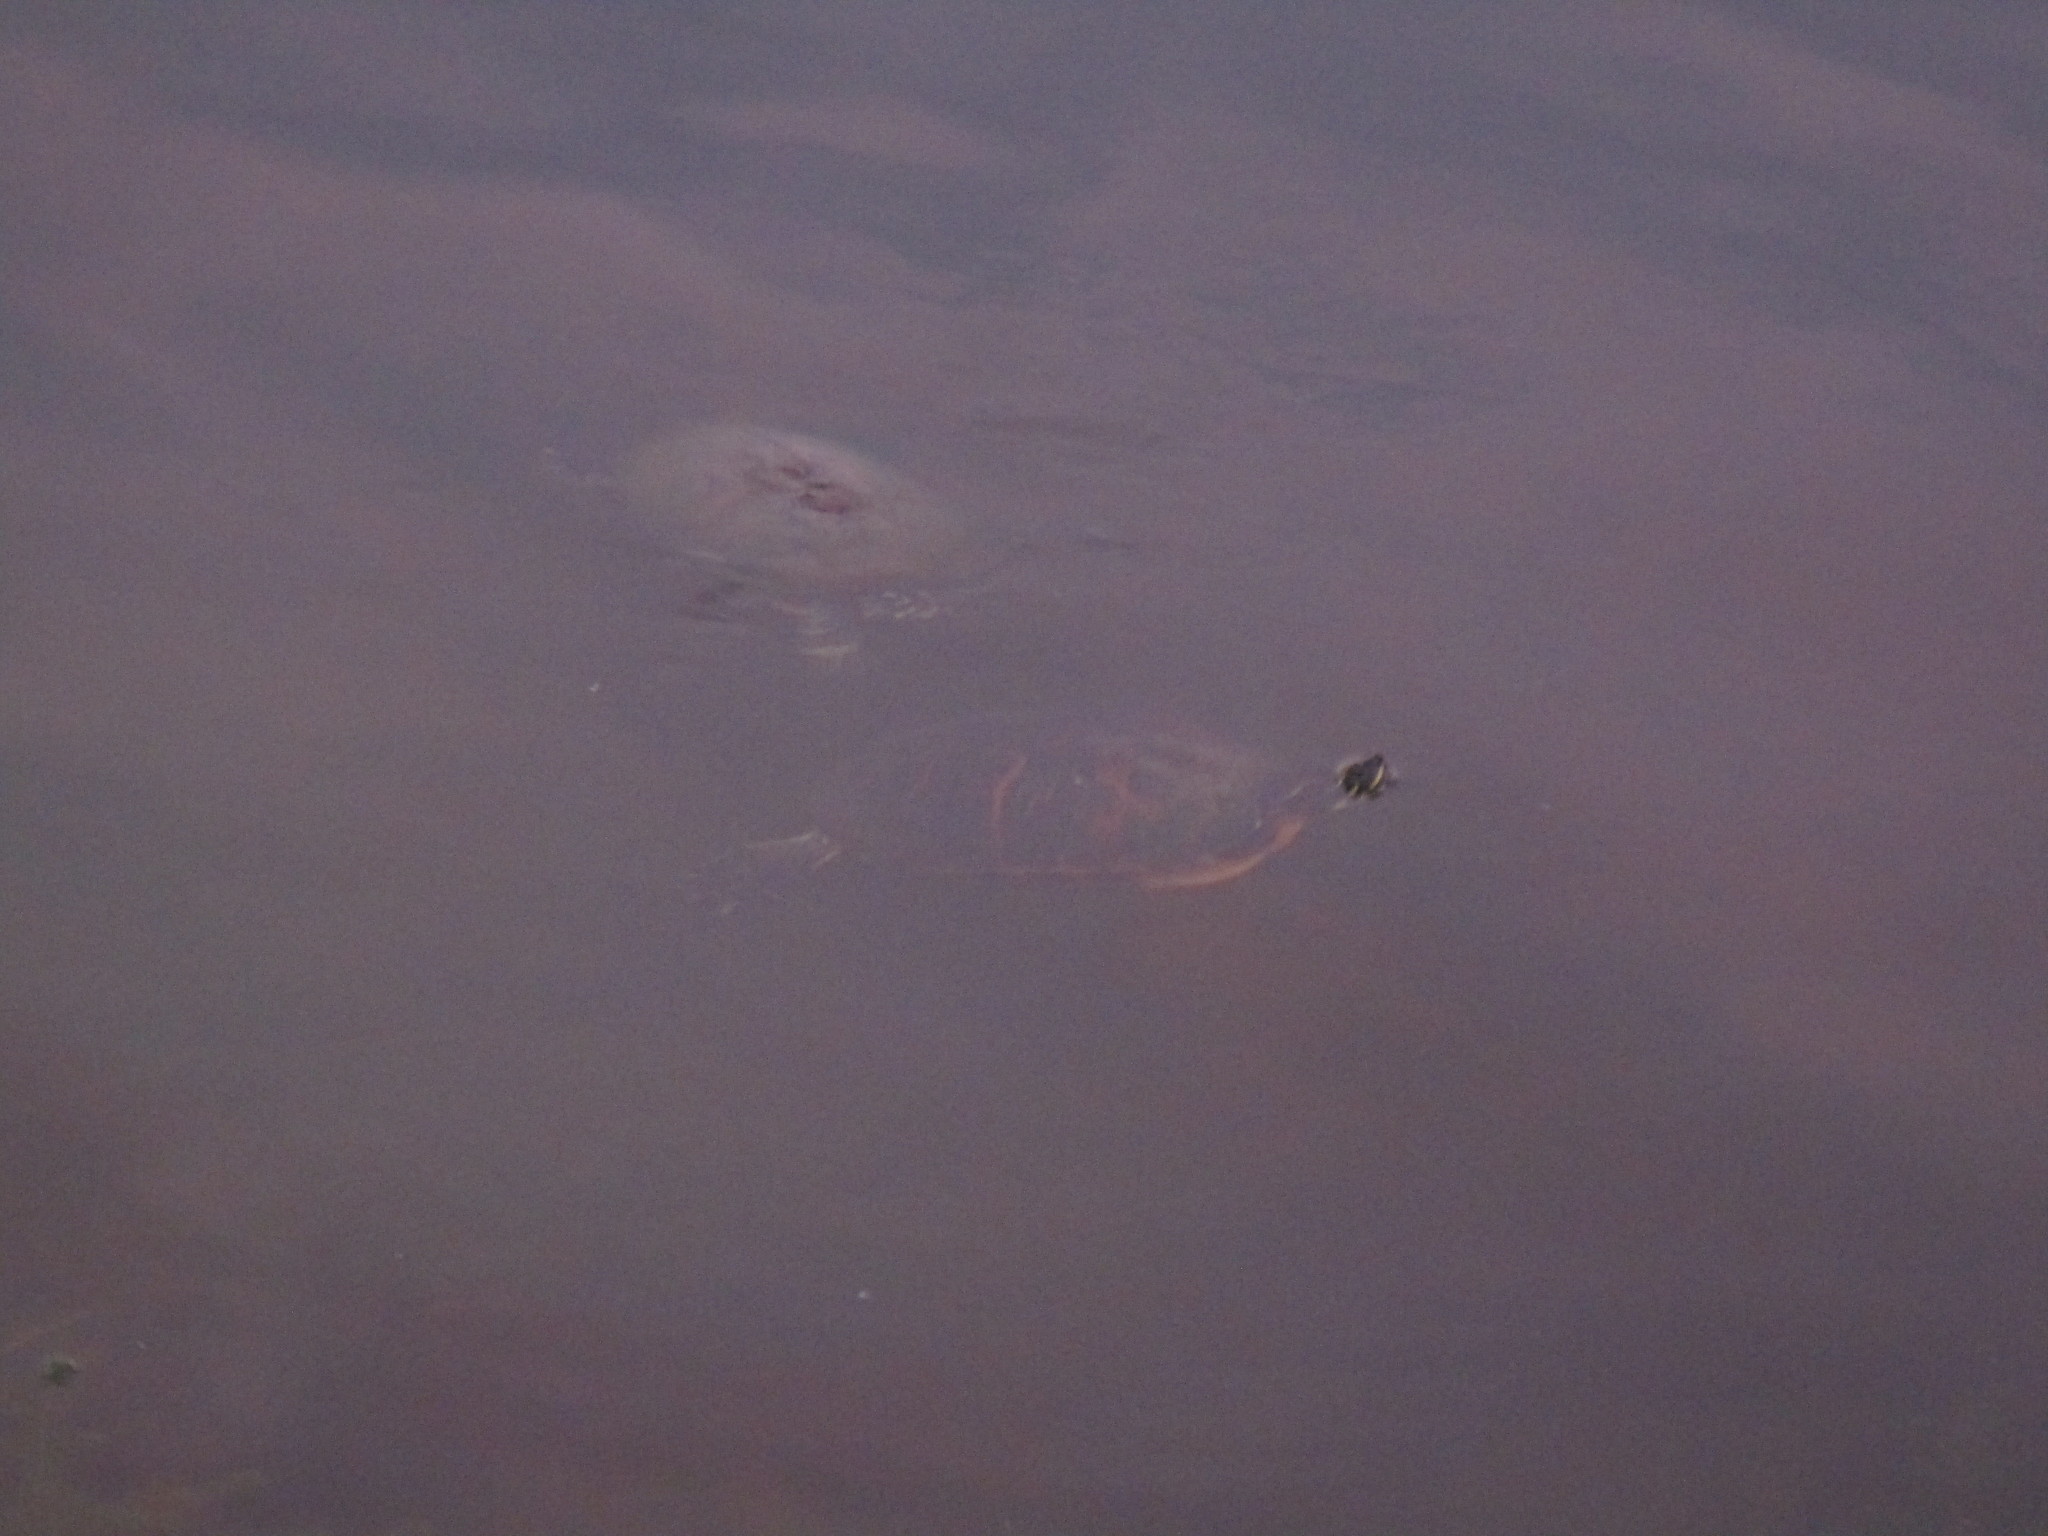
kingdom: Animalia
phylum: Chordata
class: Testudines
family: Emydidae
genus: Pseudemys
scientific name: Pseudemys nelsoni
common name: Florida red-bellied turtle
